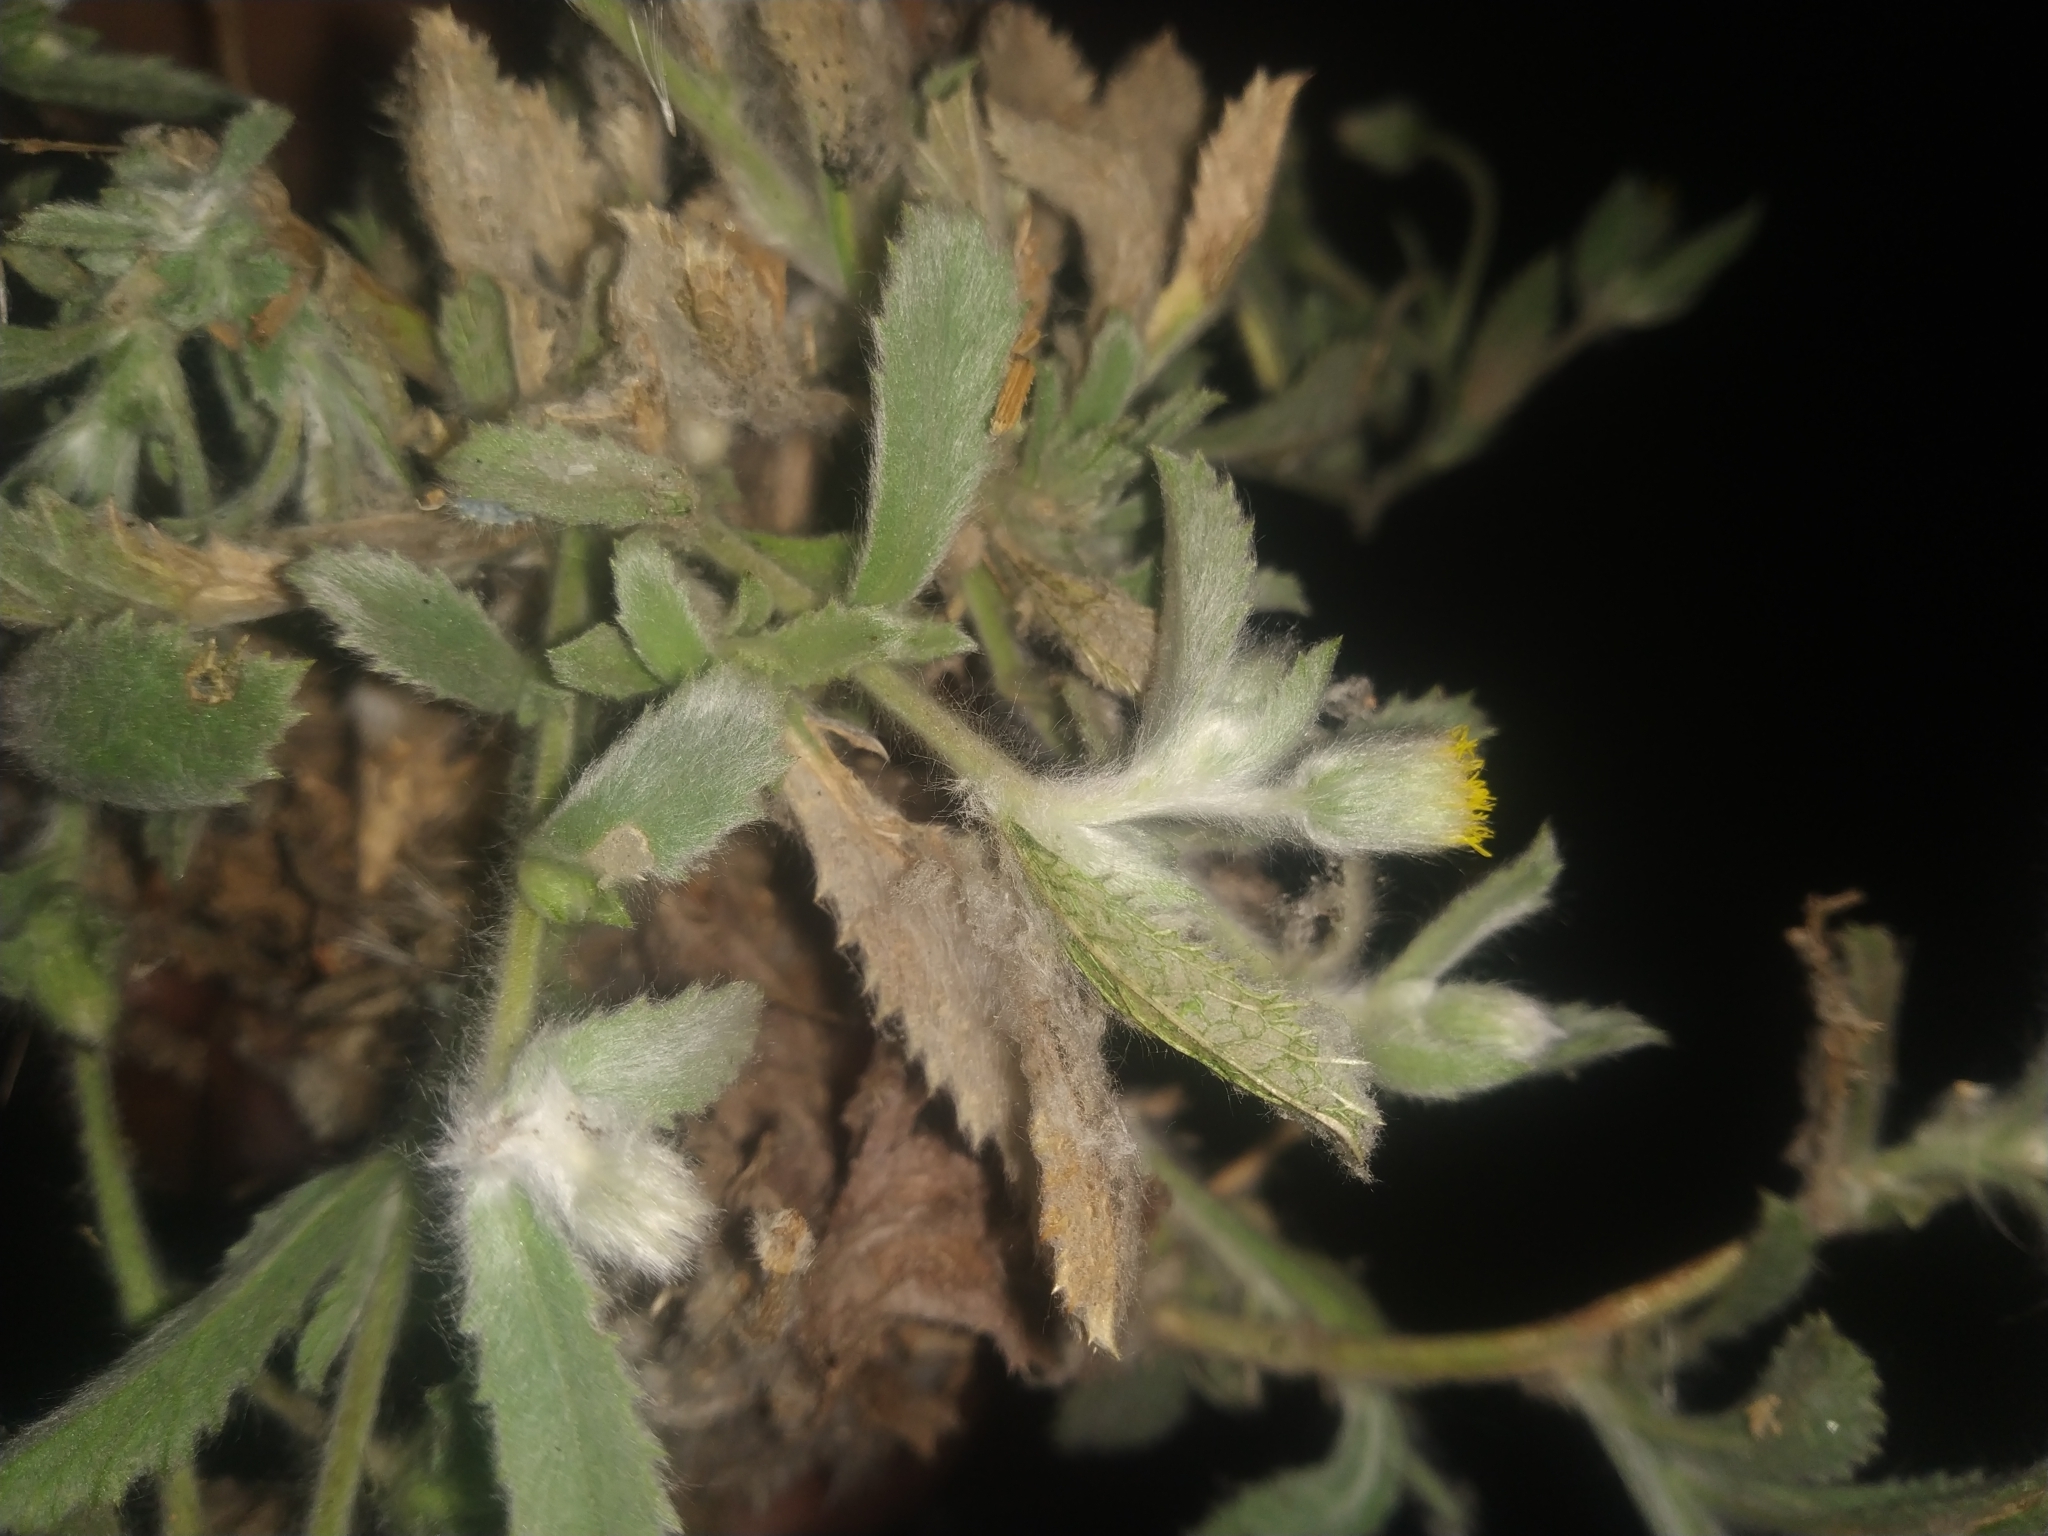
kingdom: Plantae
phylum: Tracheophyta
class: Magnoliopsida
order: Asterales
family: Asteraceae
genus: Blumea
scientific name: Blumea malcolmii
